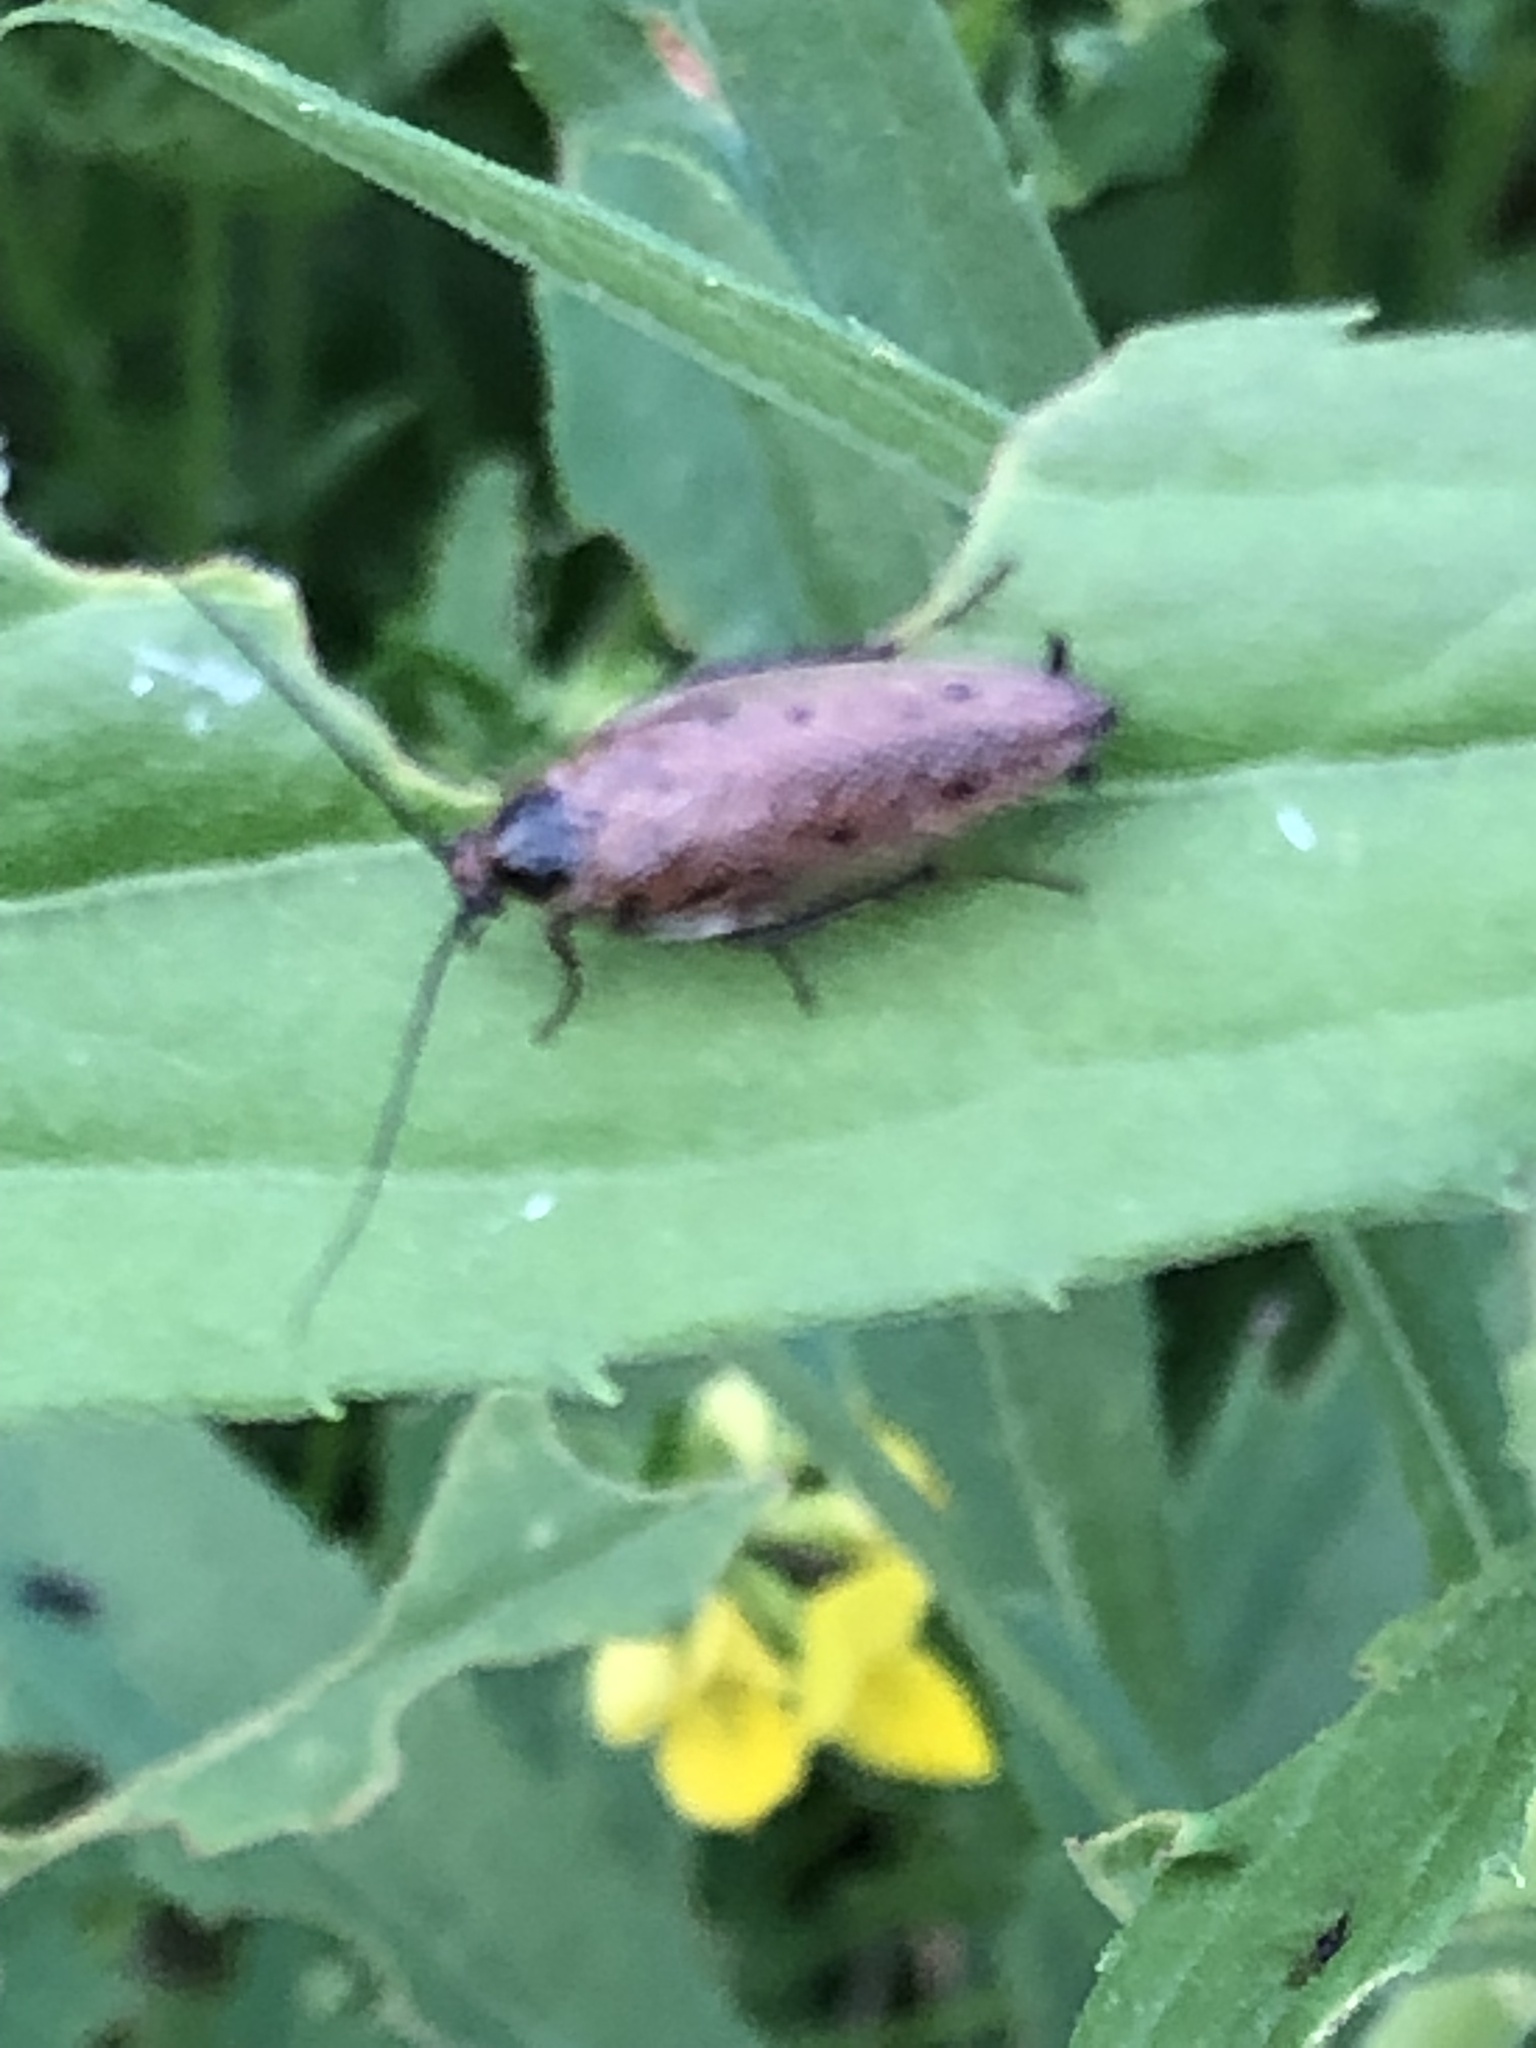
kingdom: Animalia
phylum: Arthropoda
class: Insecta
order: Blattodea
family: Ectobiidae
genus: Ectobius
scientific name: Ectobius lapponicus
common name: Dusky cockroach
